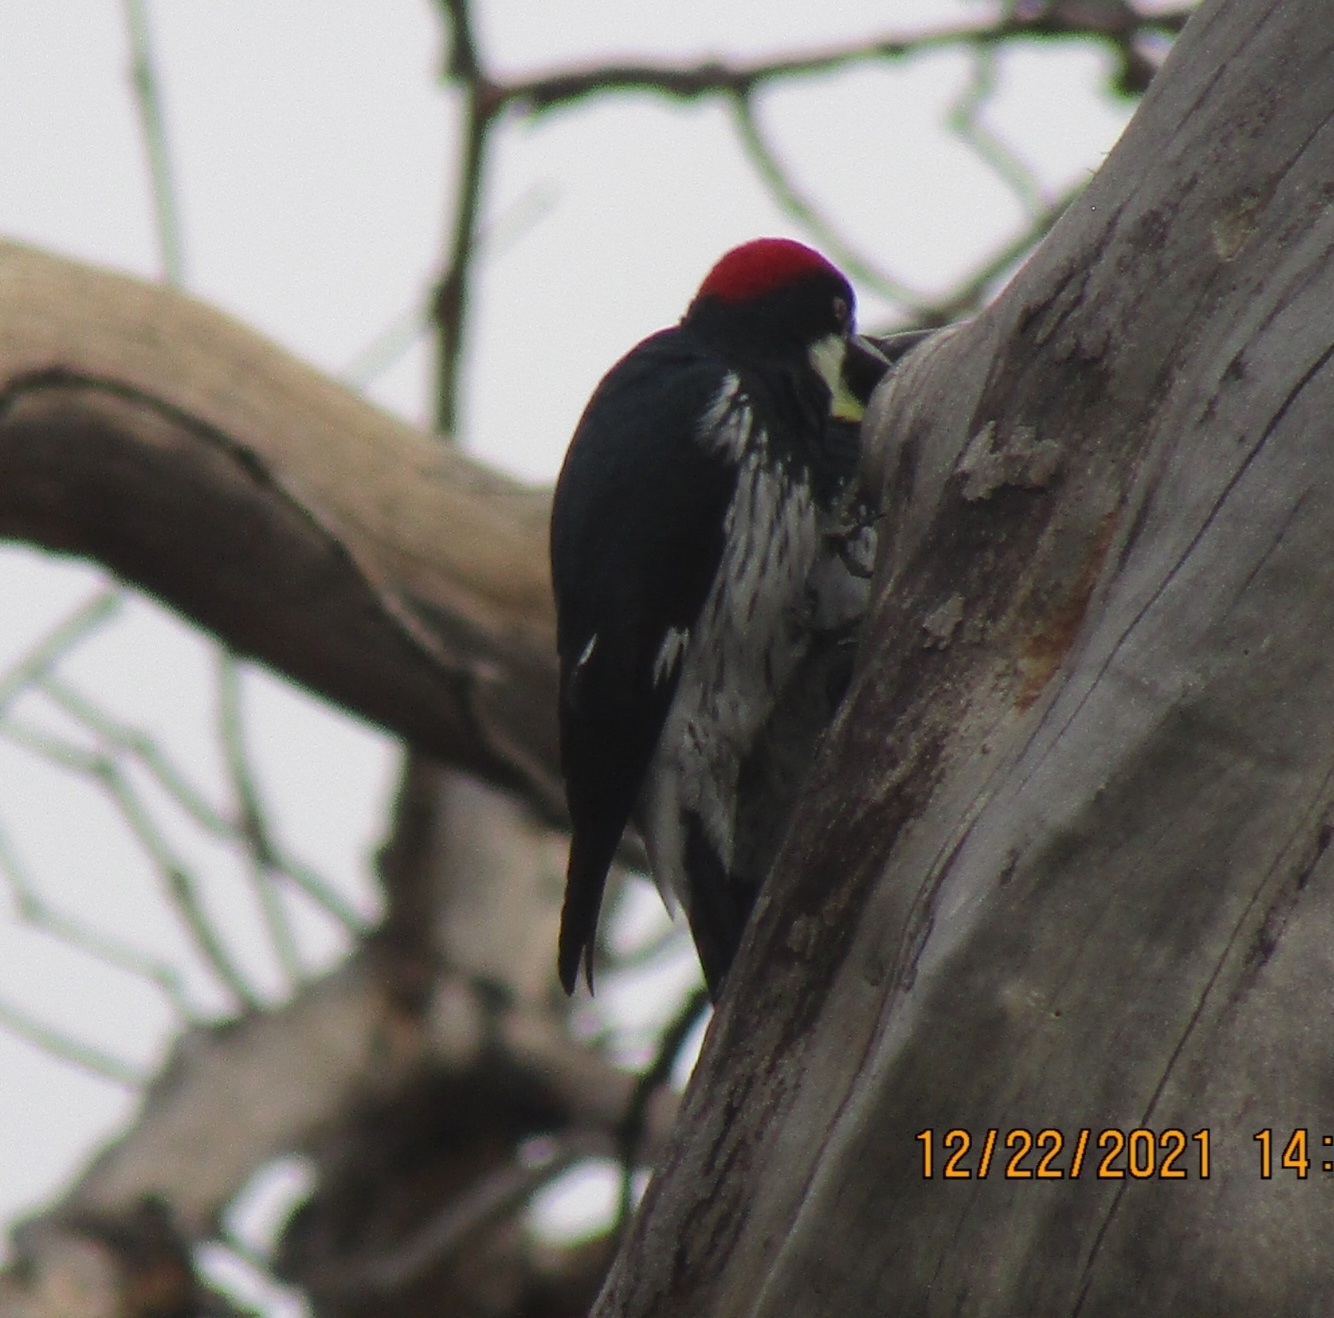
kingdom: Animalia
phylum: Chordata
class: Aves
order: Piciformes
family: Picidae
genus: Melanerpes
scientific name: Melanerpes formicivorus
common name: Acorn woodpecker
